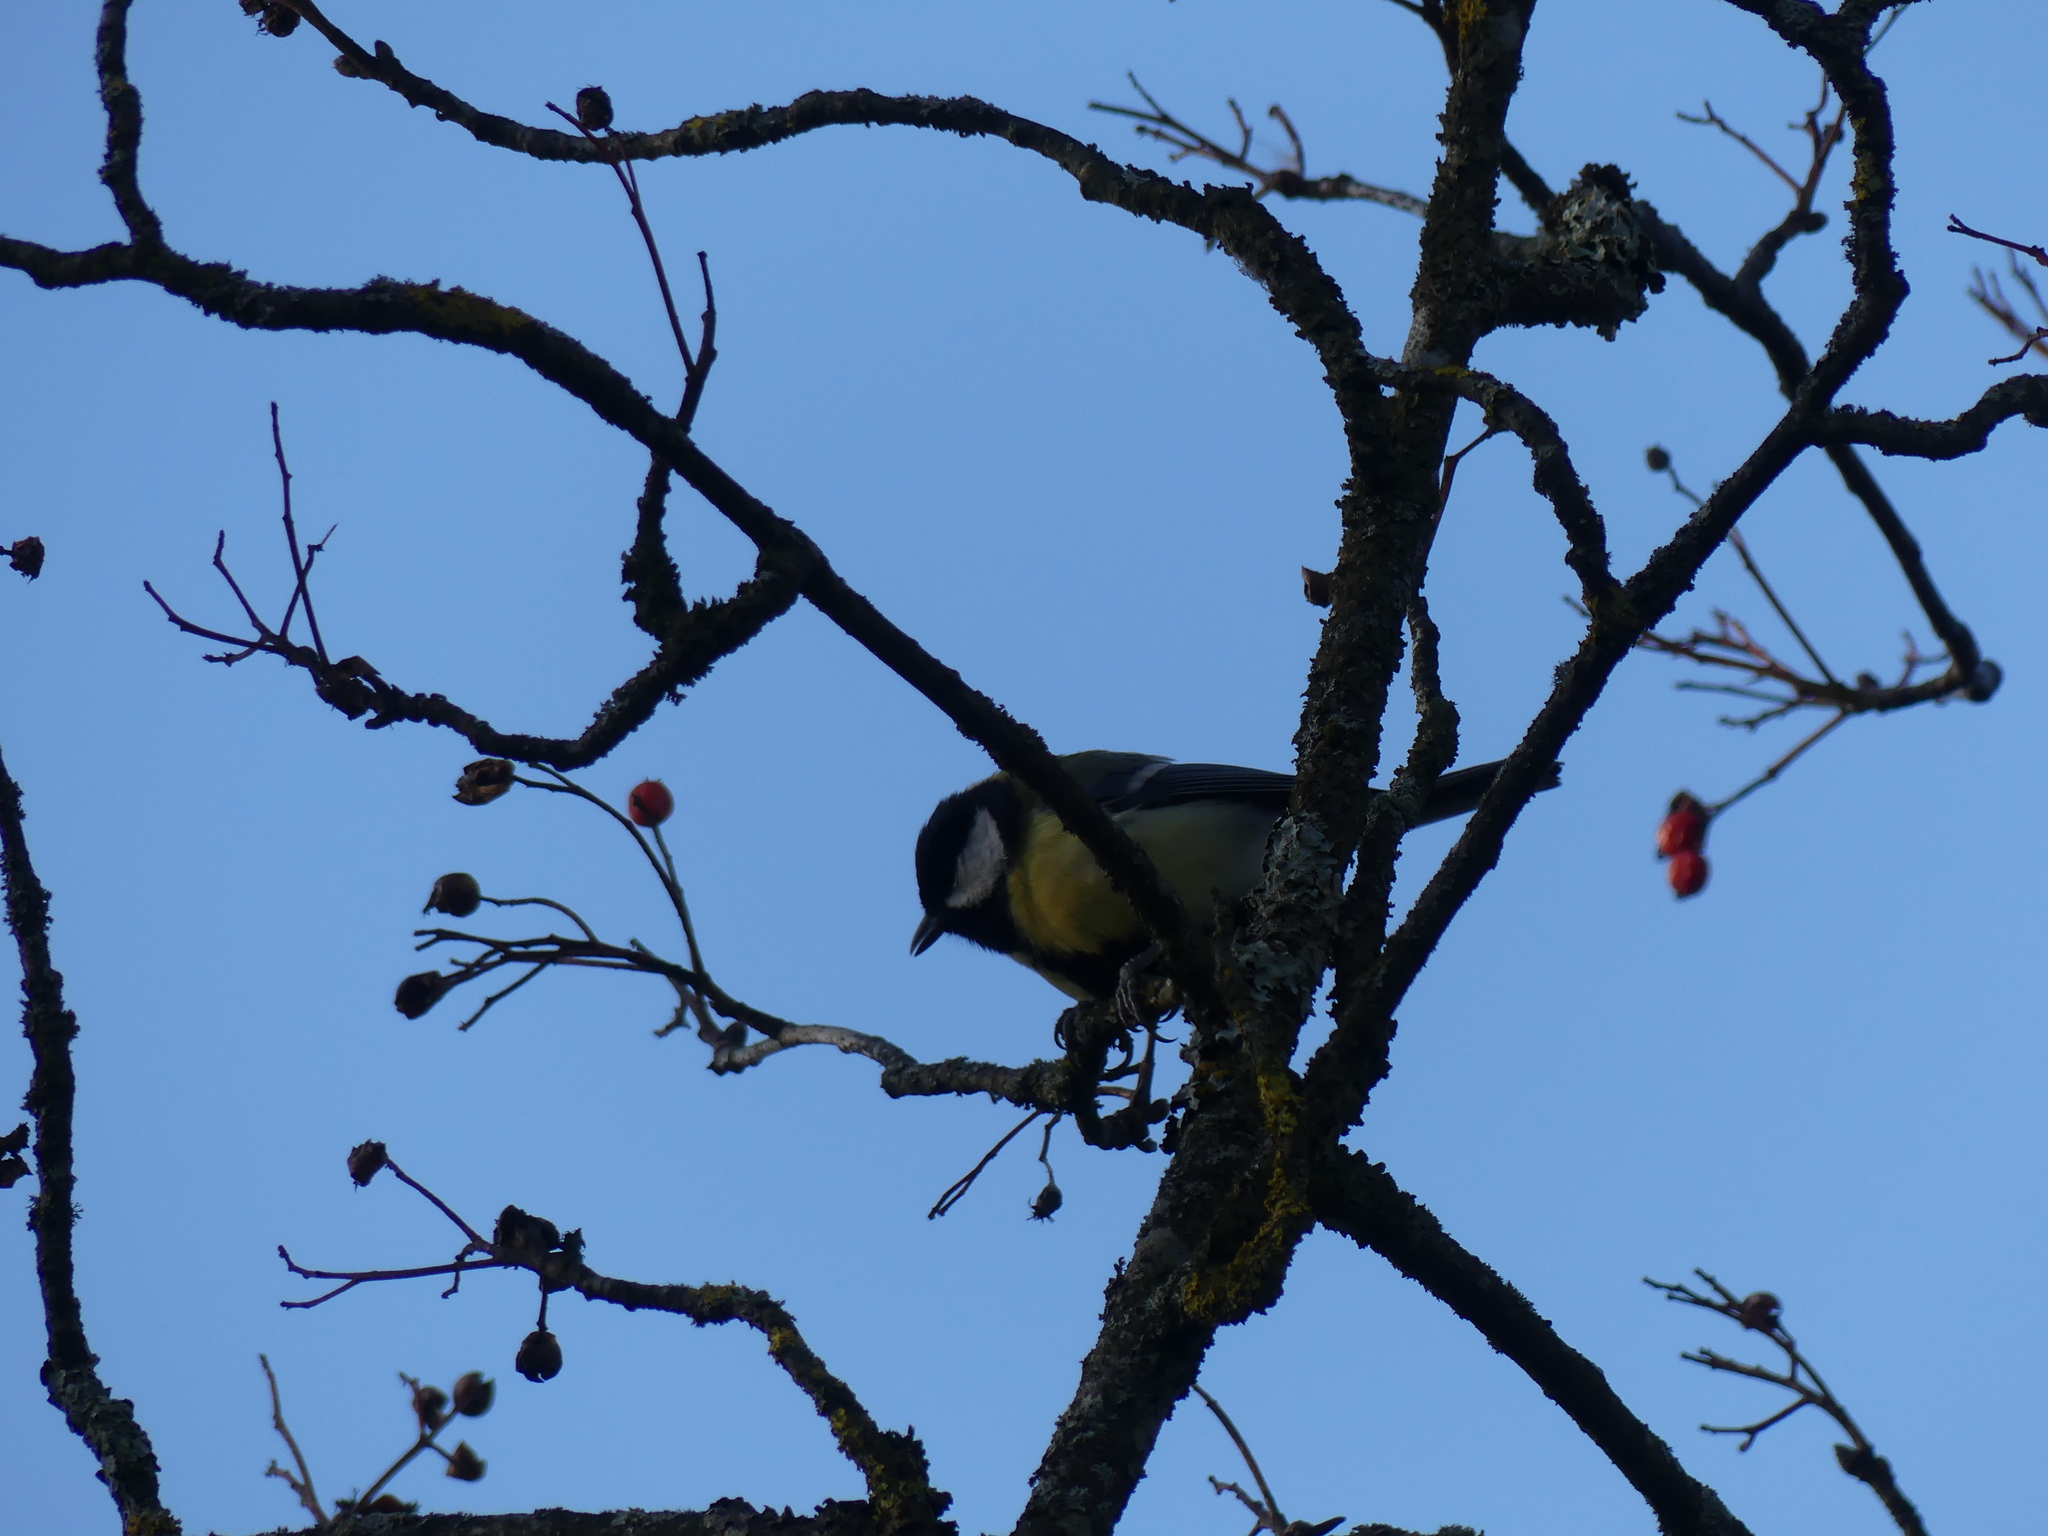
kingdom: Animalia
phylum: Chordata
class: Aves
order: Passeriformes
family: Paridae
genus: Parus
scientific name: Parus major
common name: Great tit
